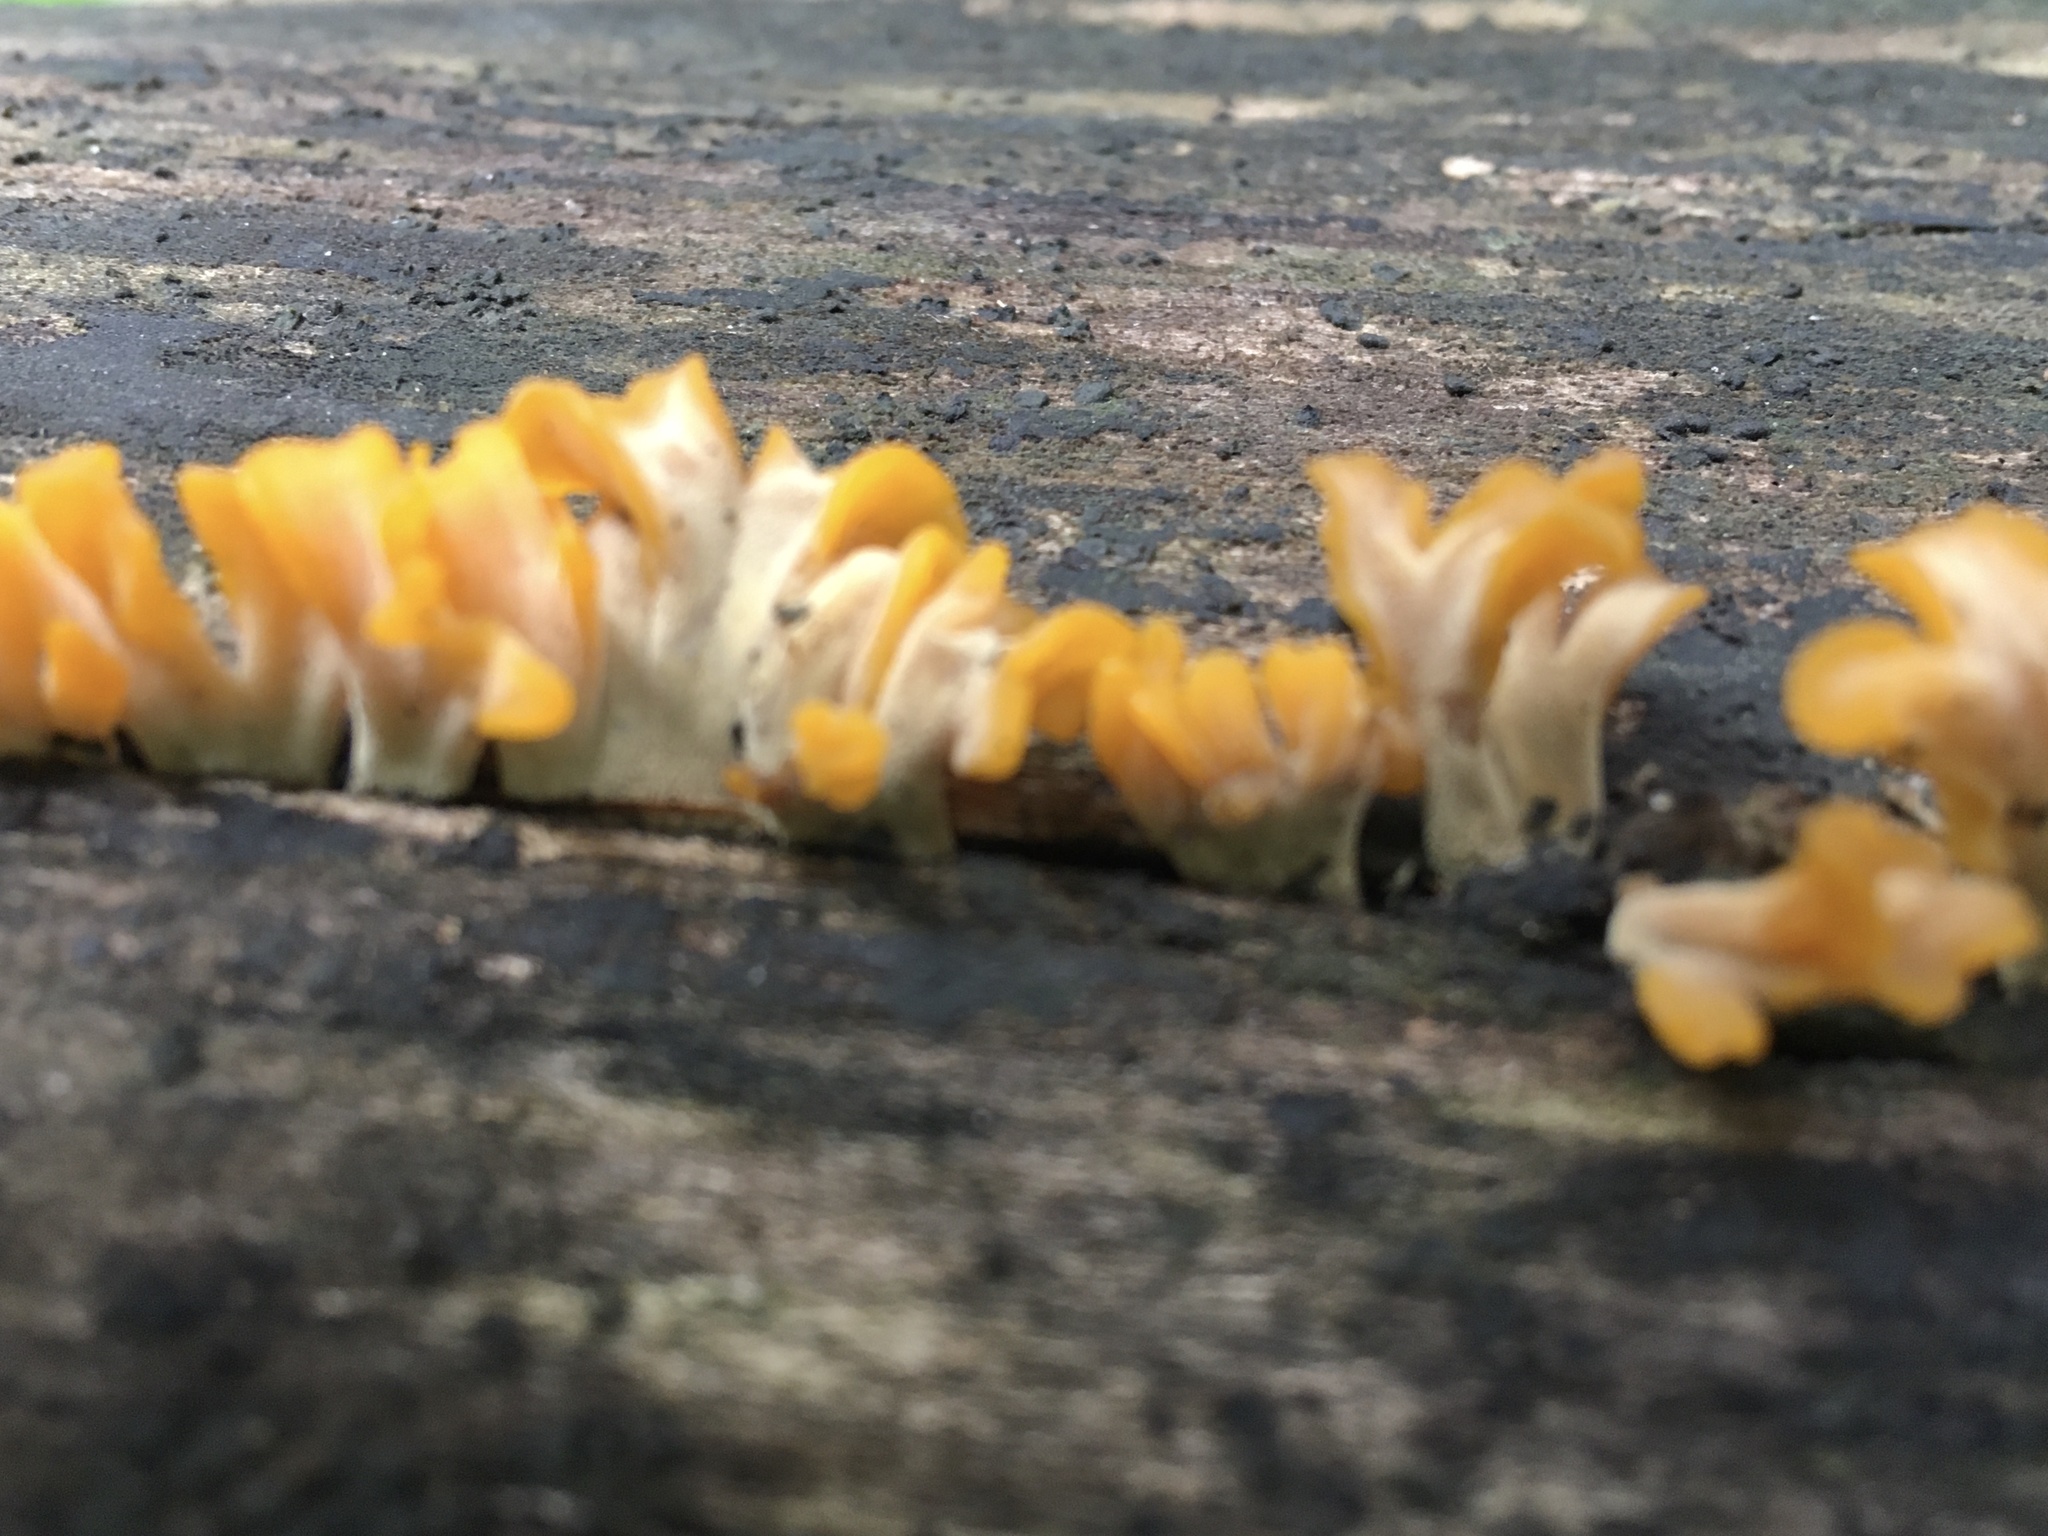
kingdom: Fungi
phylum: Basidiomycota
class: Dacrymycetes
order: Dacrymycetales
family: Dacrymycetaceae
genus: Dacrymyces
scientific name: Dacrymyces spathularius
